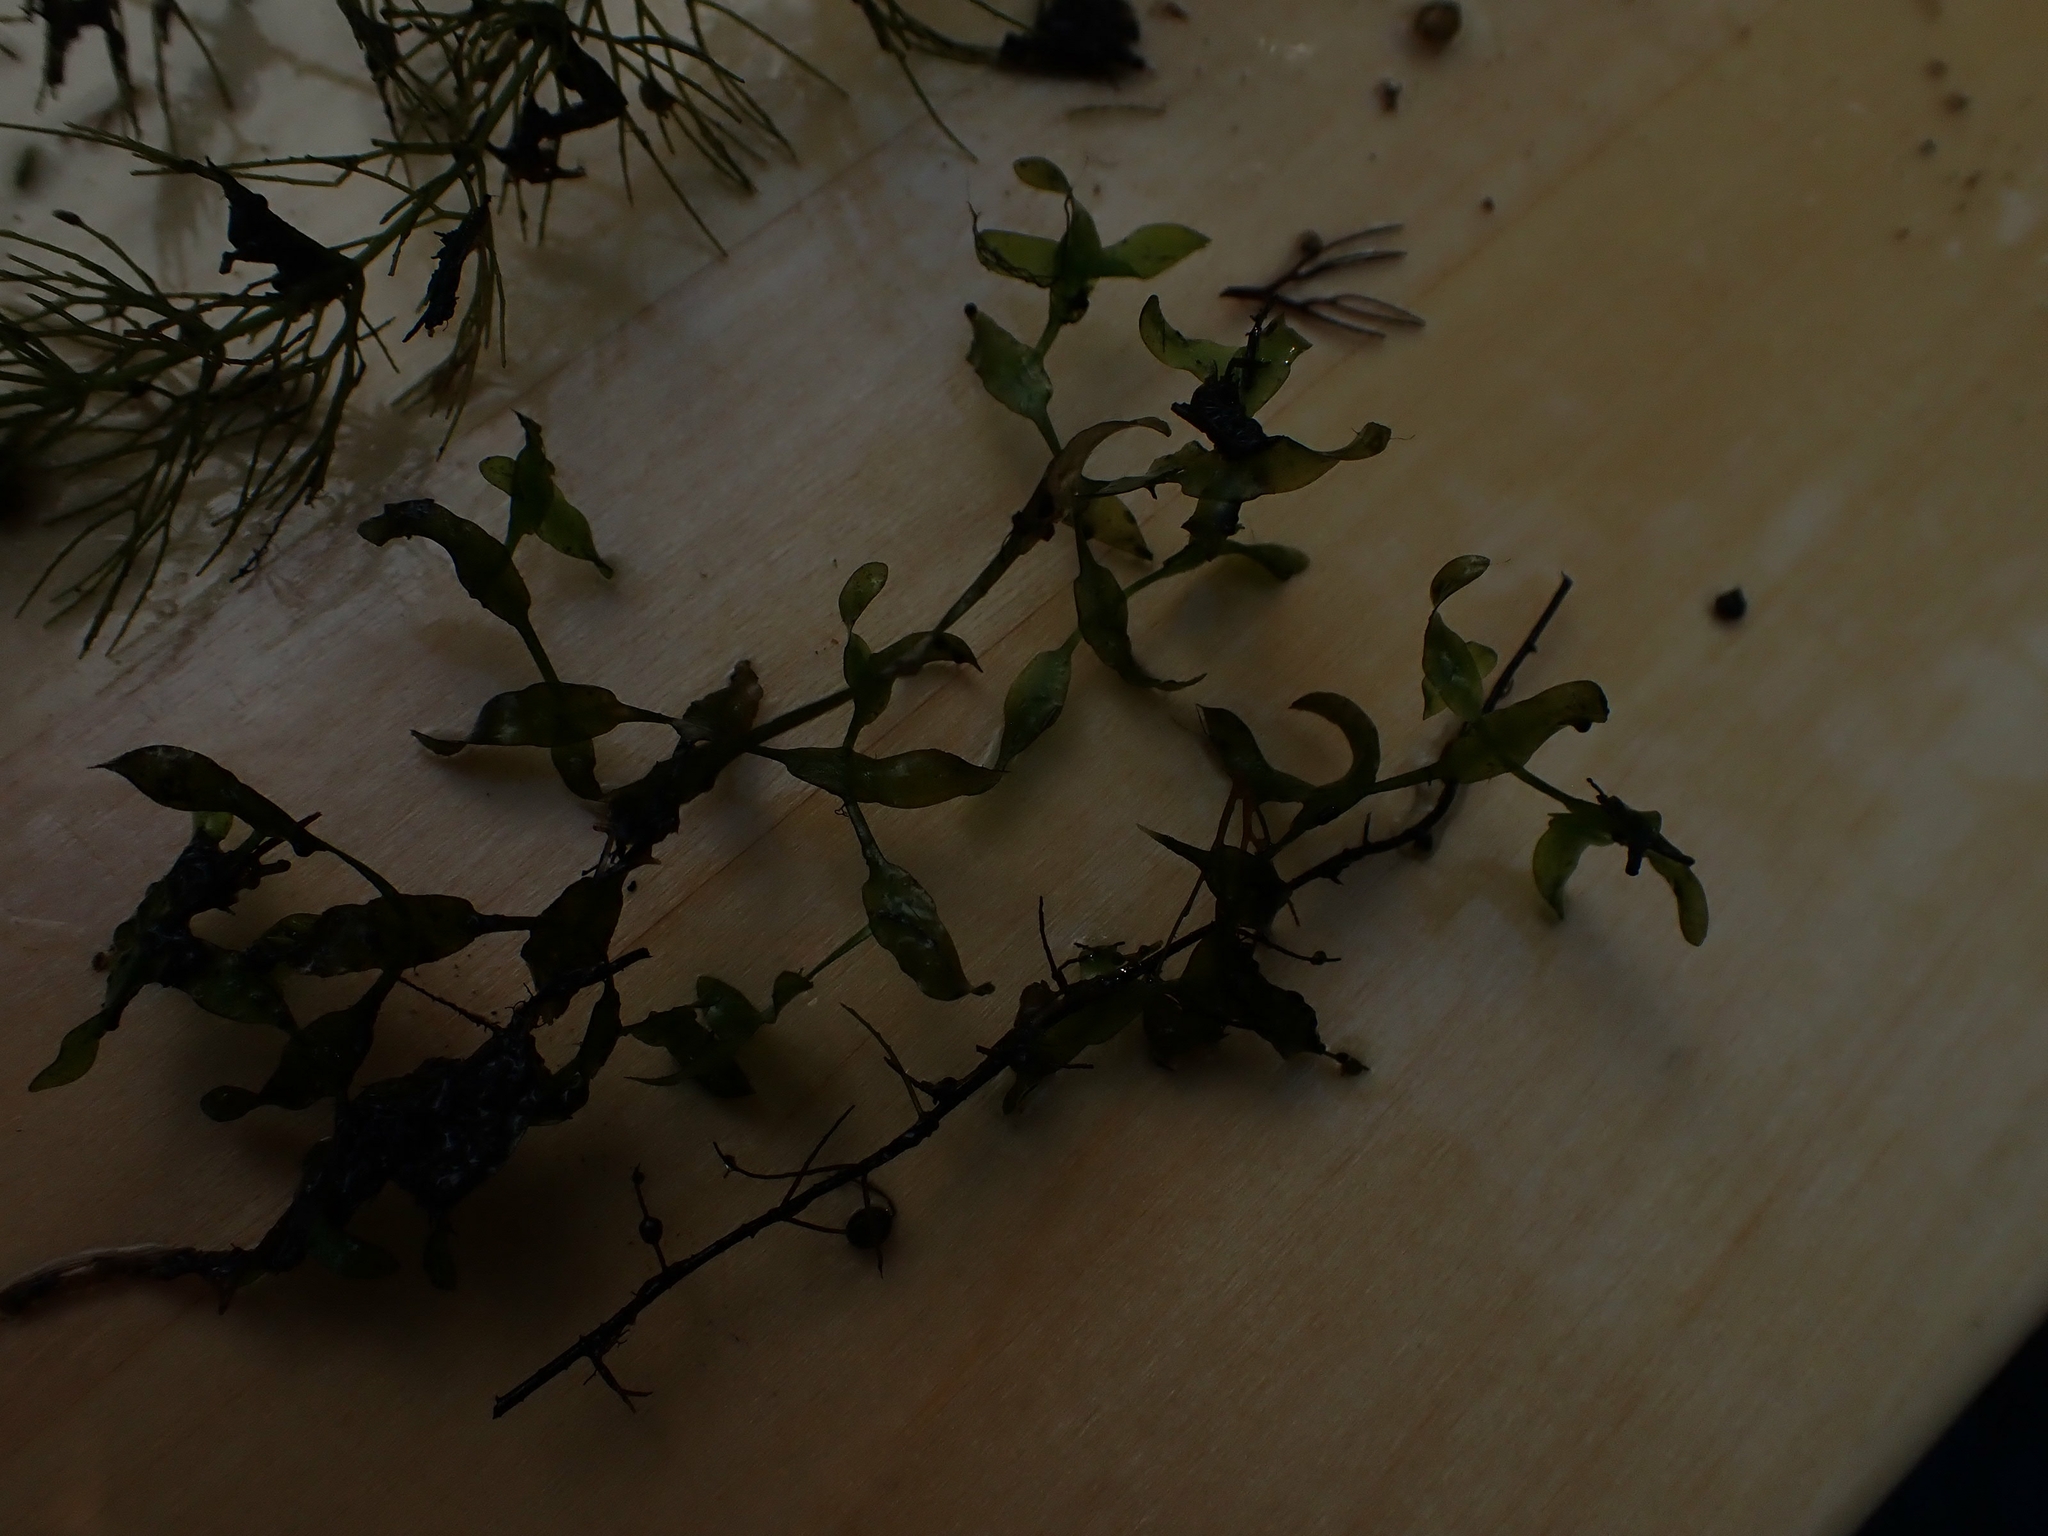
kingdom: Plantae
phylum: Tracheophyta
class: Liliopsida
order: Alismatales
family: Araceae
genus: Lemna
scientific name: Lemna trisulca
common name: Ivy-leaved duckweed
